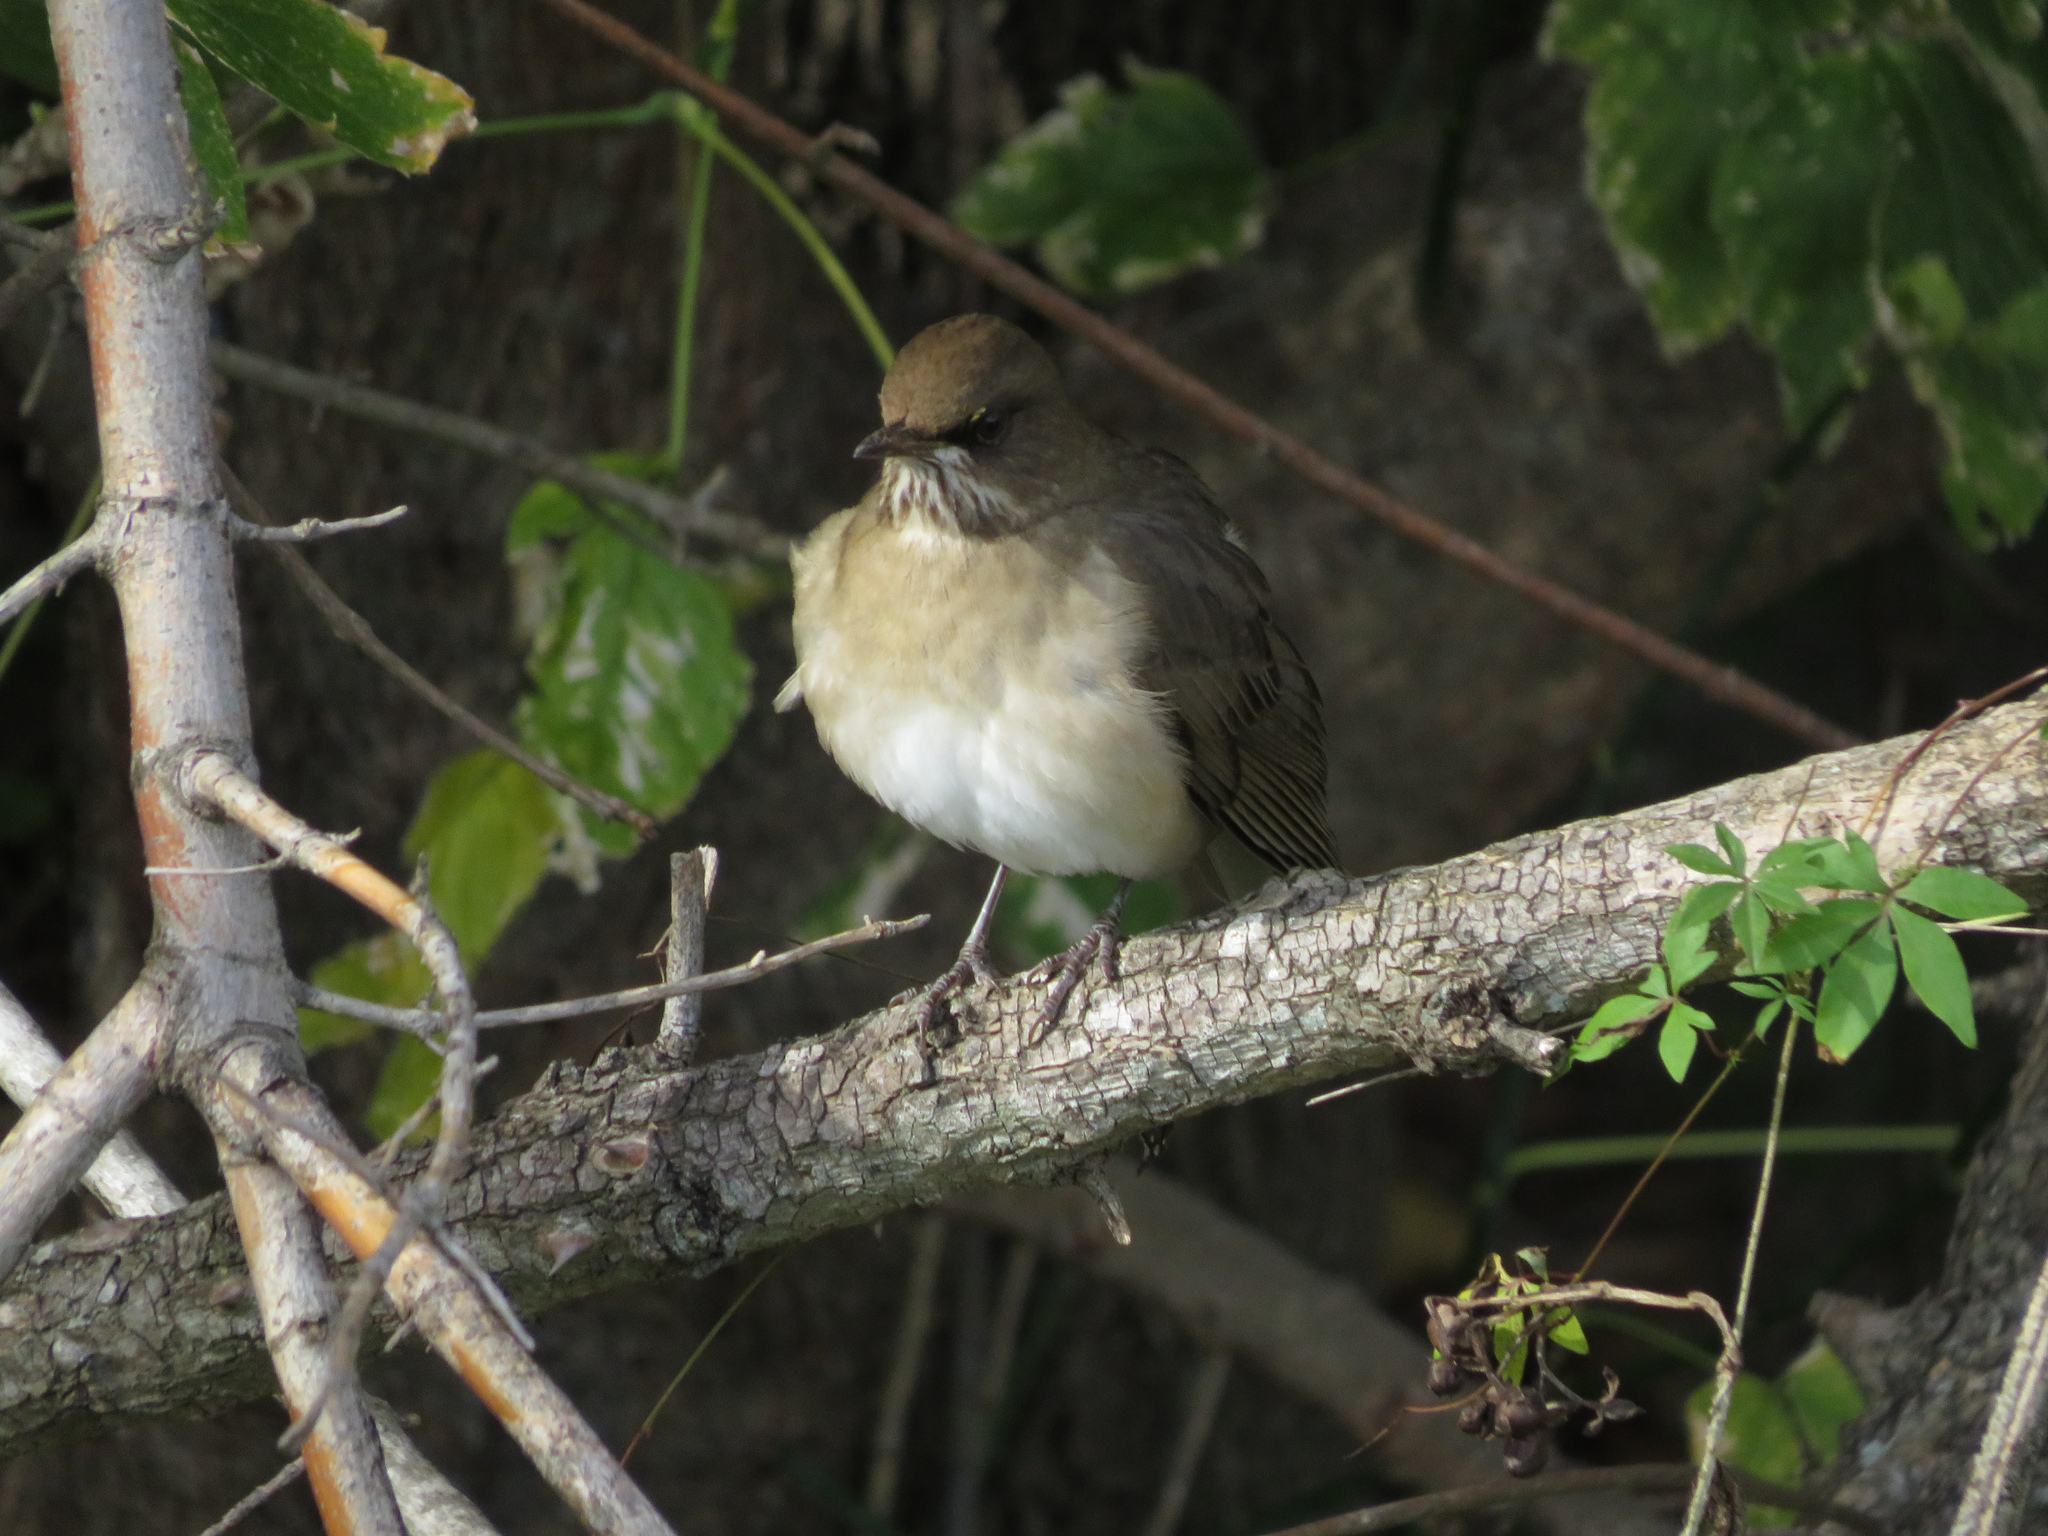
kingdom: Animalia
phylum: Chordata
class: Aves
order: Passeriformes
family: Turdidae
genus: Turdus
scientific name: Turdus amaurochalinus
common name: Creamy-bellied thrush
